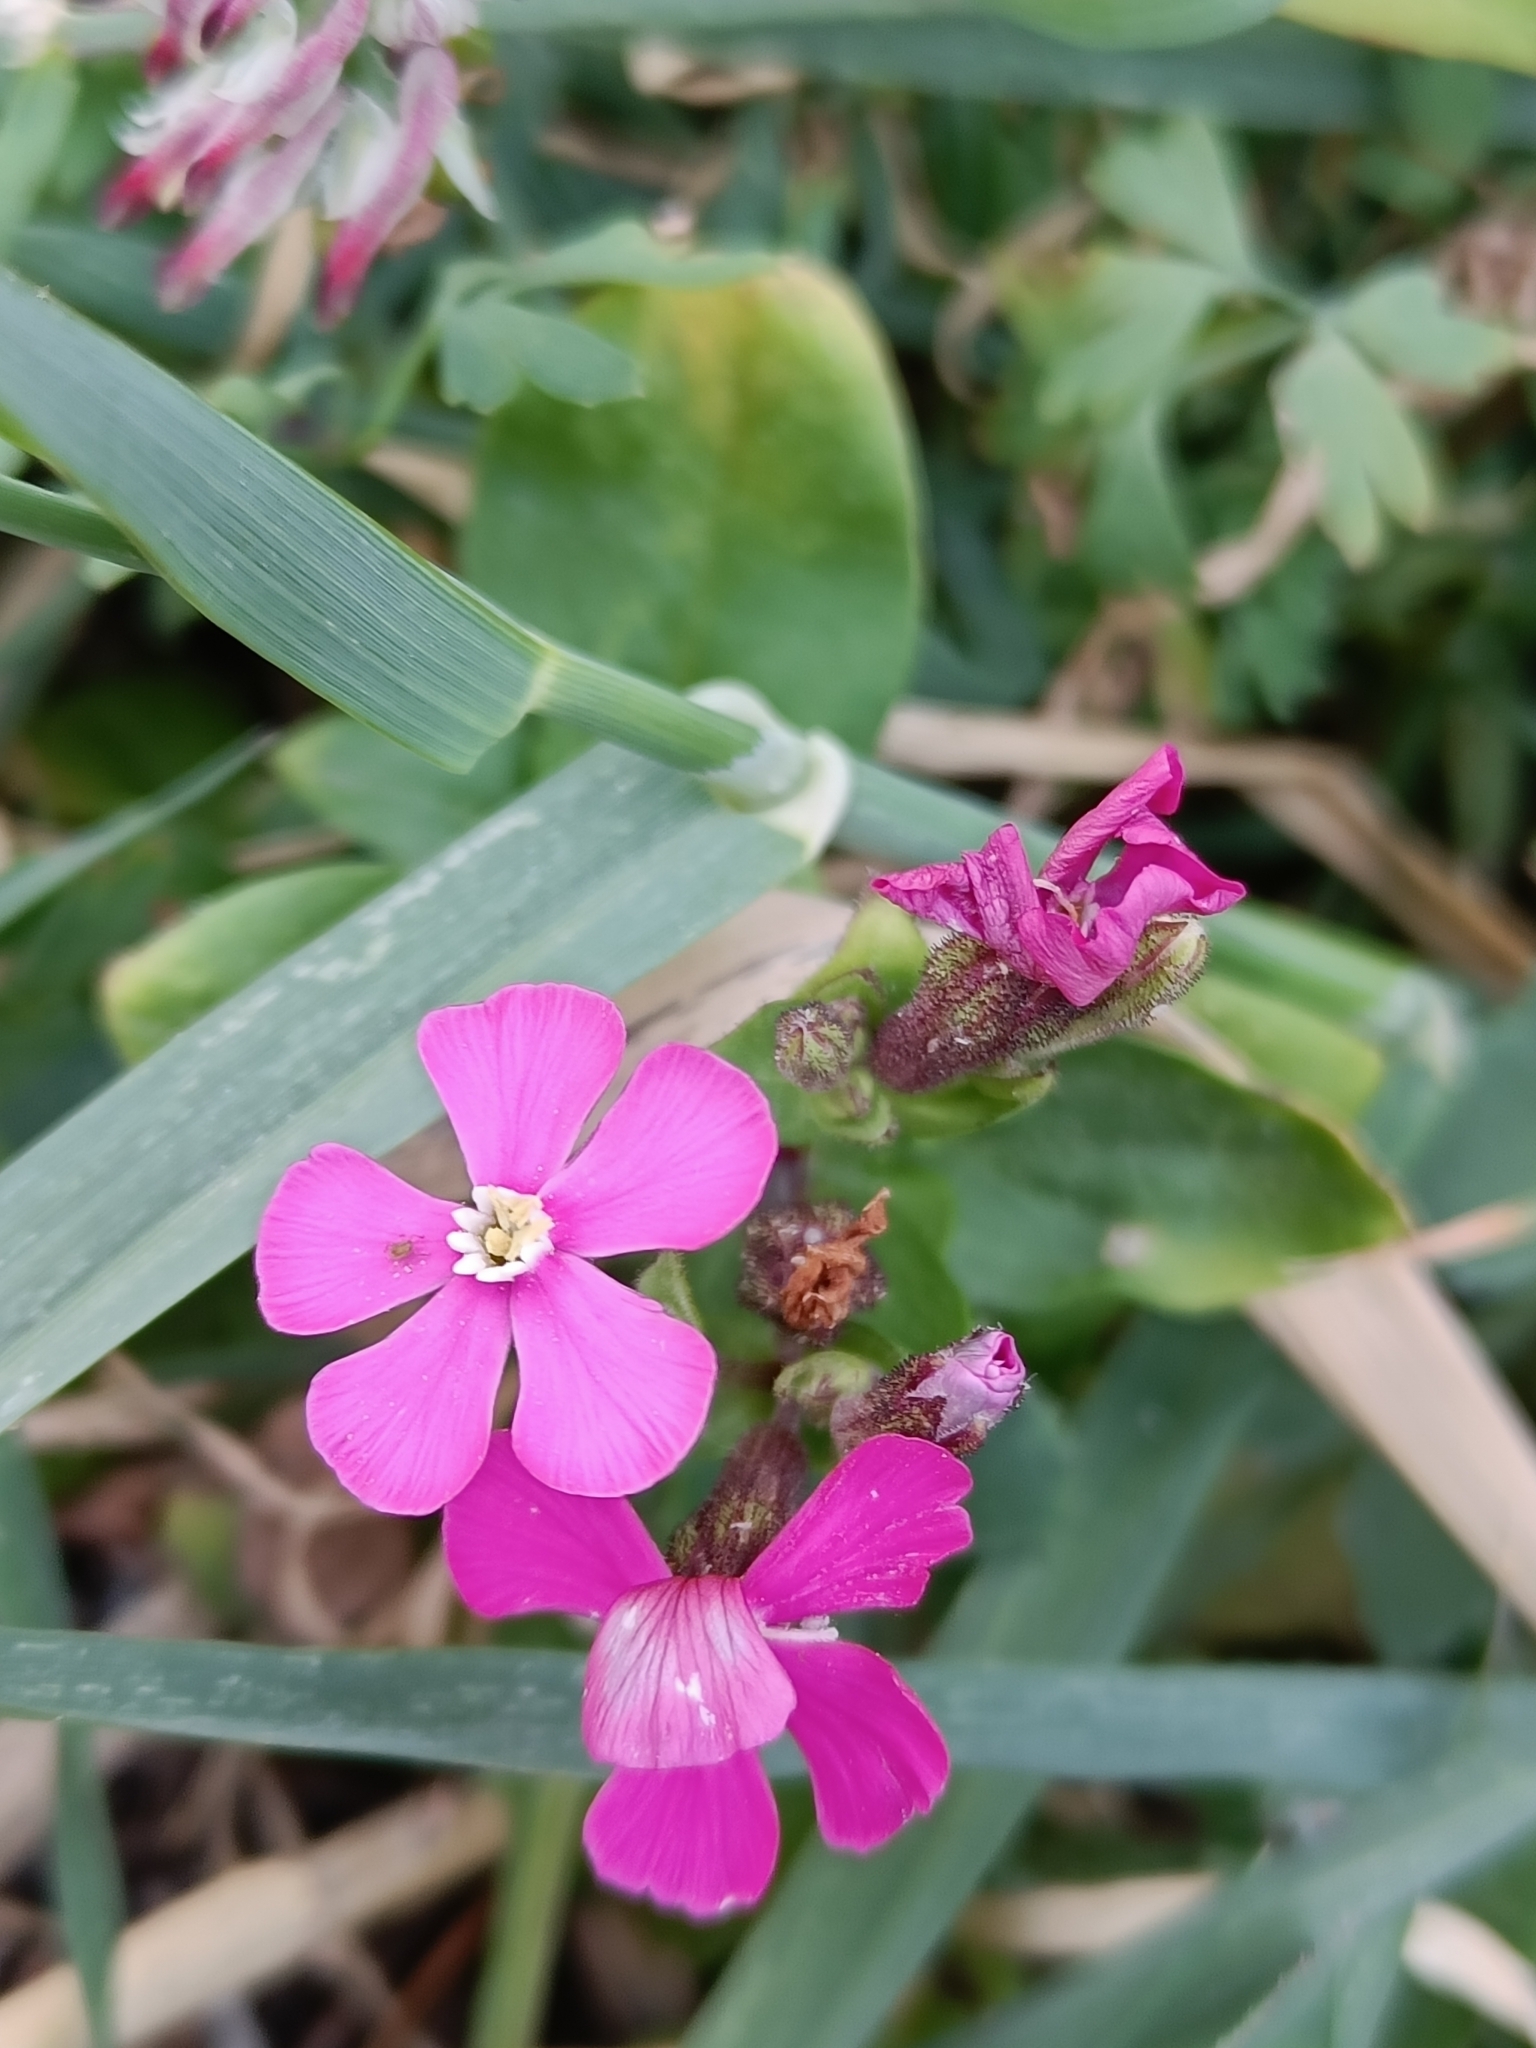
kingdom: Plantae
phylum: Tracheophyta
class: Magnoliopsida
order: Caryophyllales
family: Caryophyllaceae
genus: Silene
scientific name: Silene pseudoatocion
